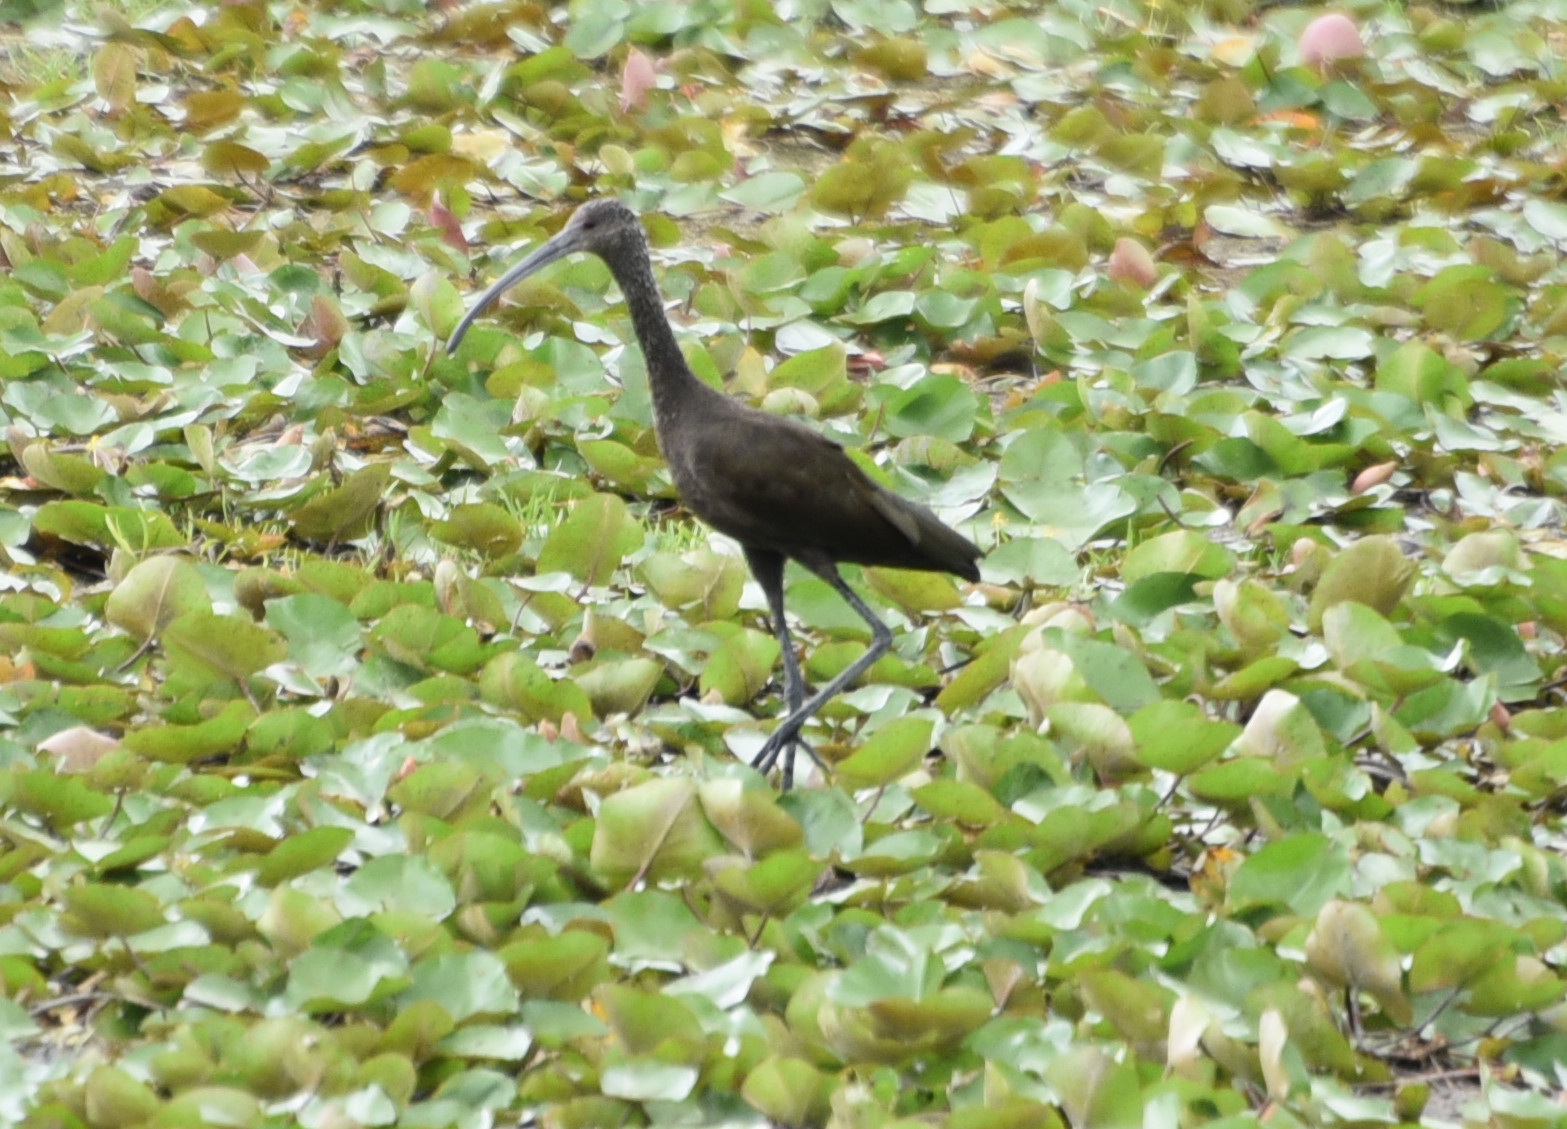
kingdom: Animalia
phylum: Chordata
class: Aves
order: Pelecaniformes
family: Threskiornithidae
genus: Plegadis
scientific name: Plegadis chihi
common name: White-faced ibis
